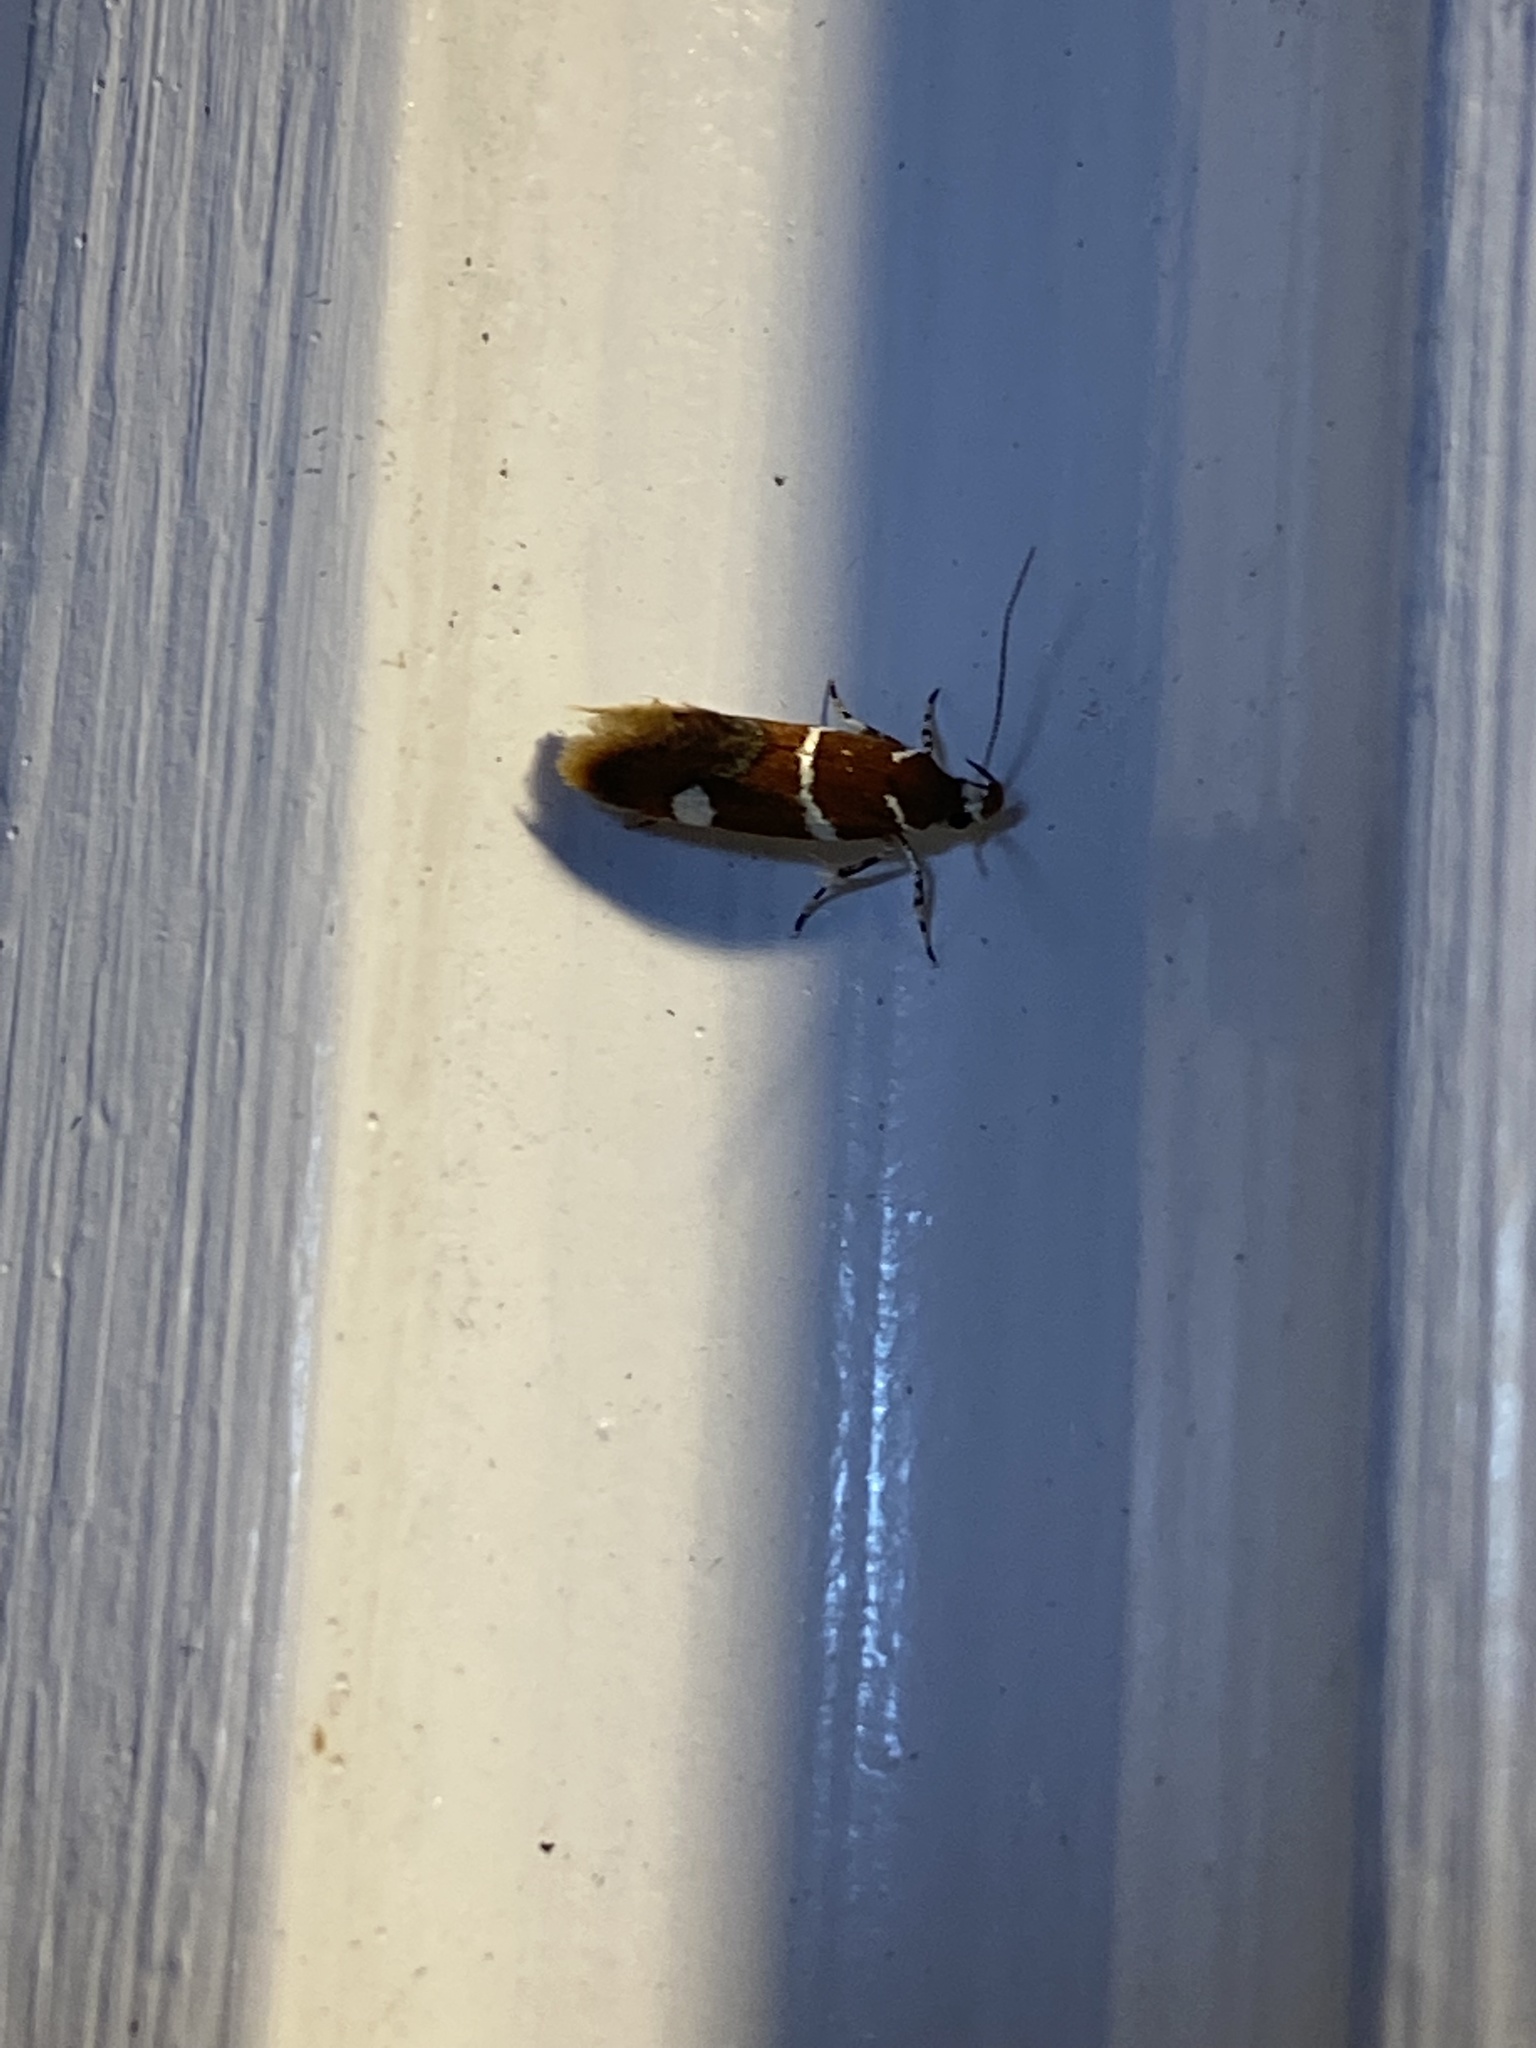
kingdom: Animalia
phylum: Arthropoda
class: Insecta
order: Lepidoptera
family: Oecophoridae
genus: Promalactis
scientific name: Promalactis suzukiella
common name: Moth
